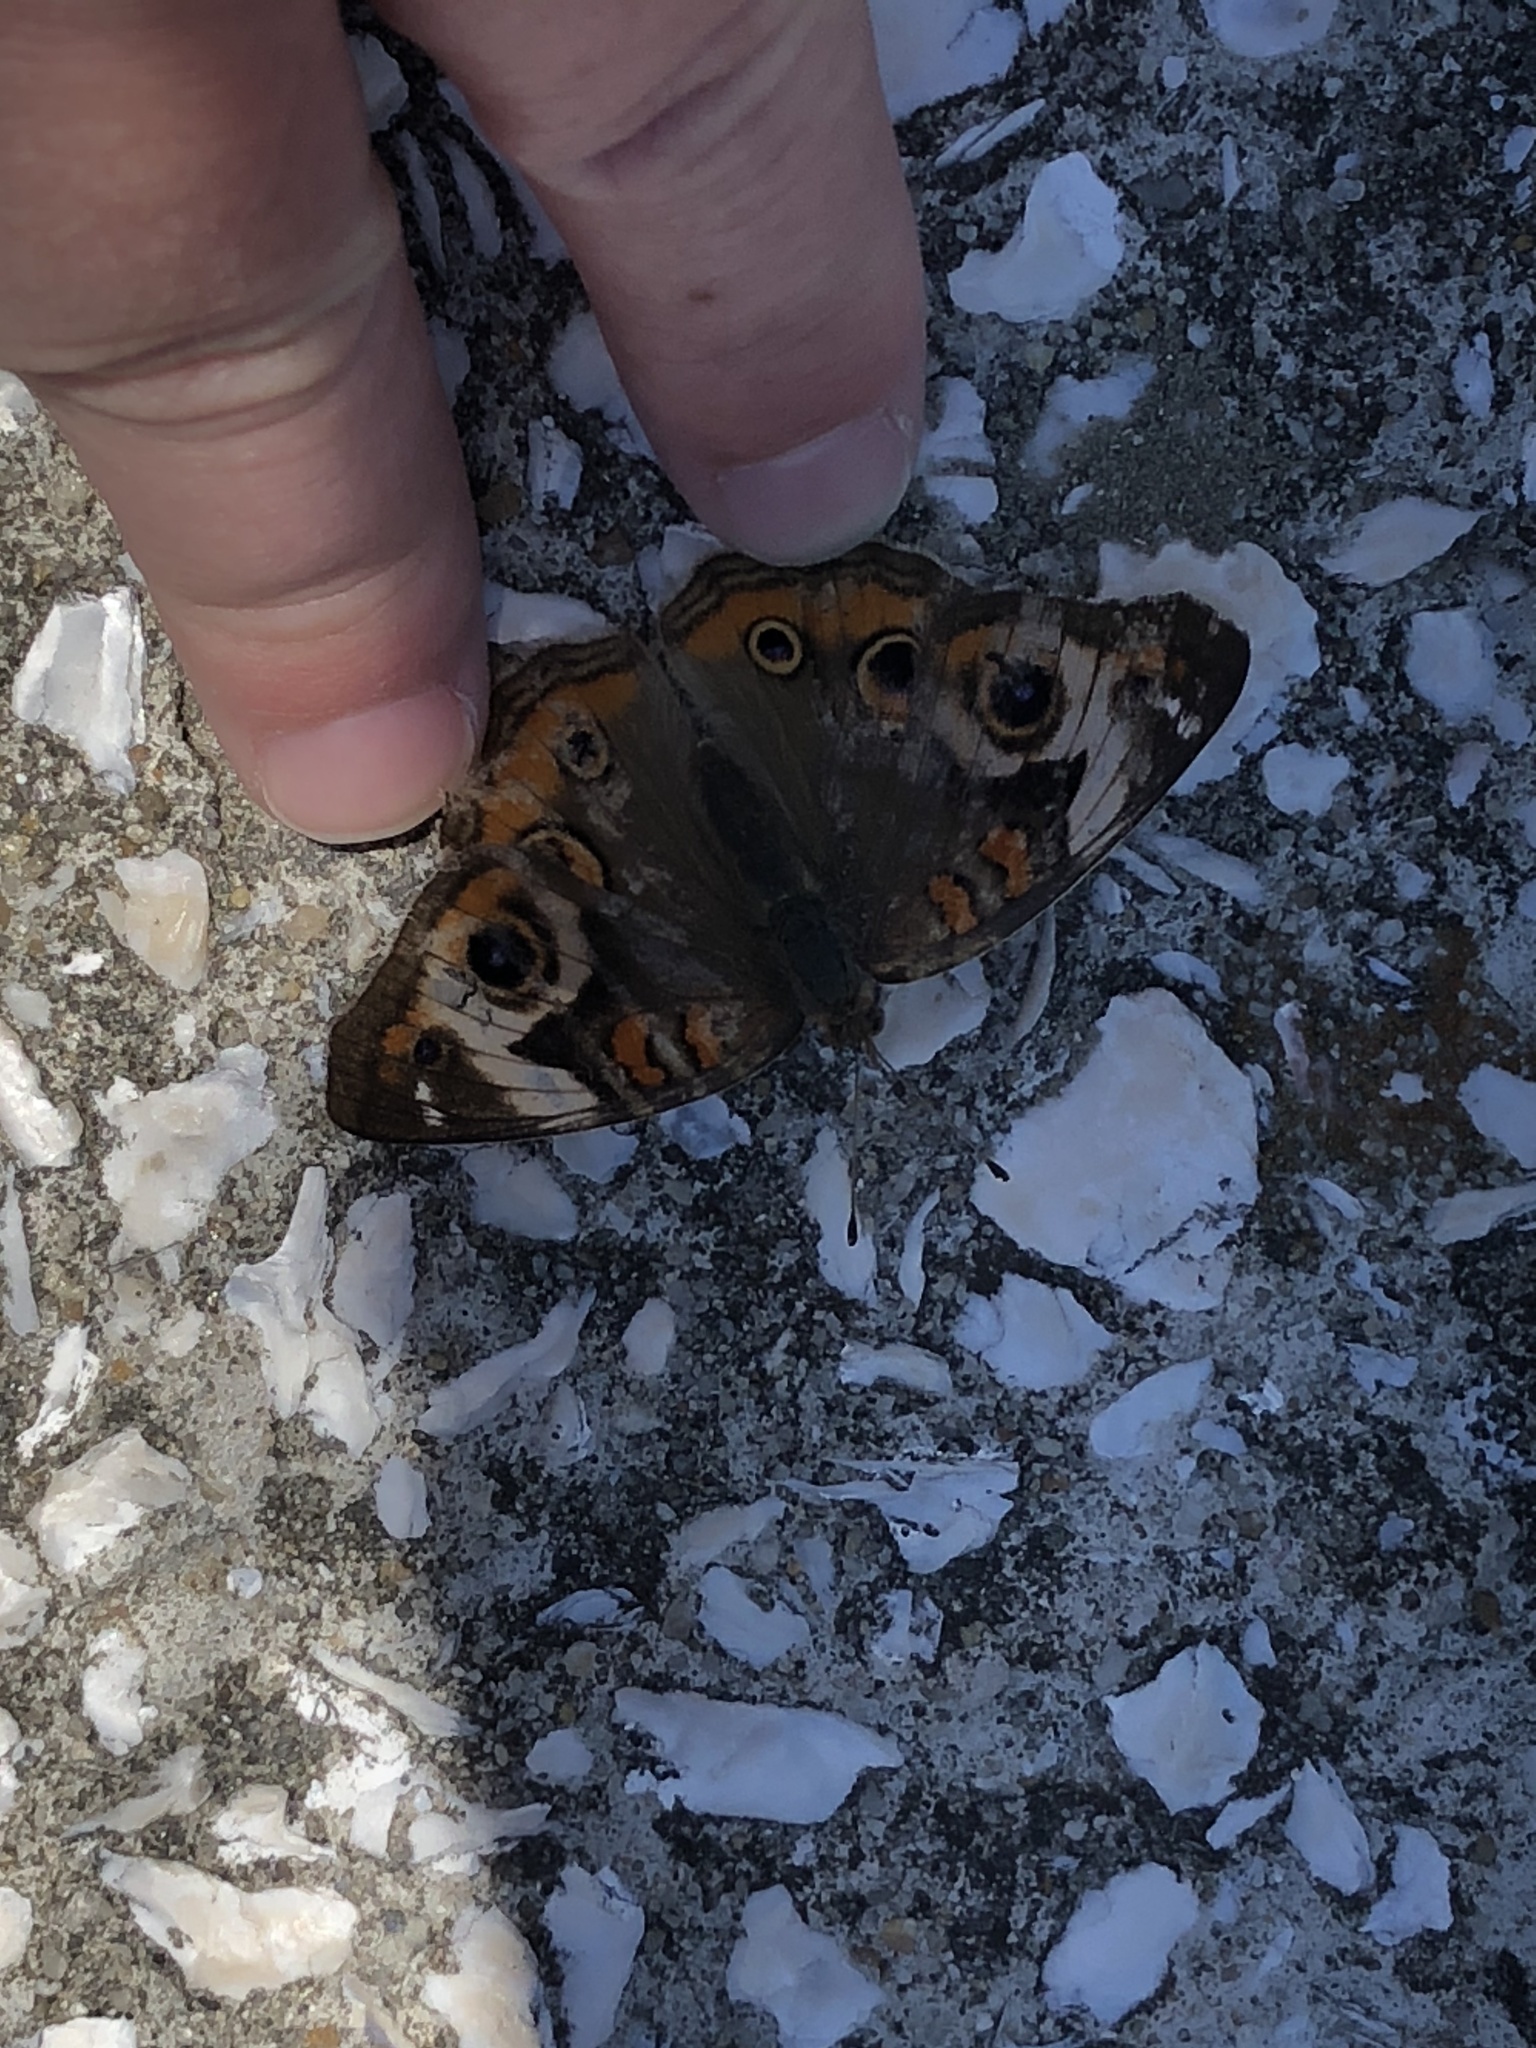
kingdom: Animalia
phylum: Arthropoda
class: Insecta
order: Lepidoptera
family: Nymphalidae
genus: Junonia
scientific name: Junonia coenia
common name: Common buckeye
